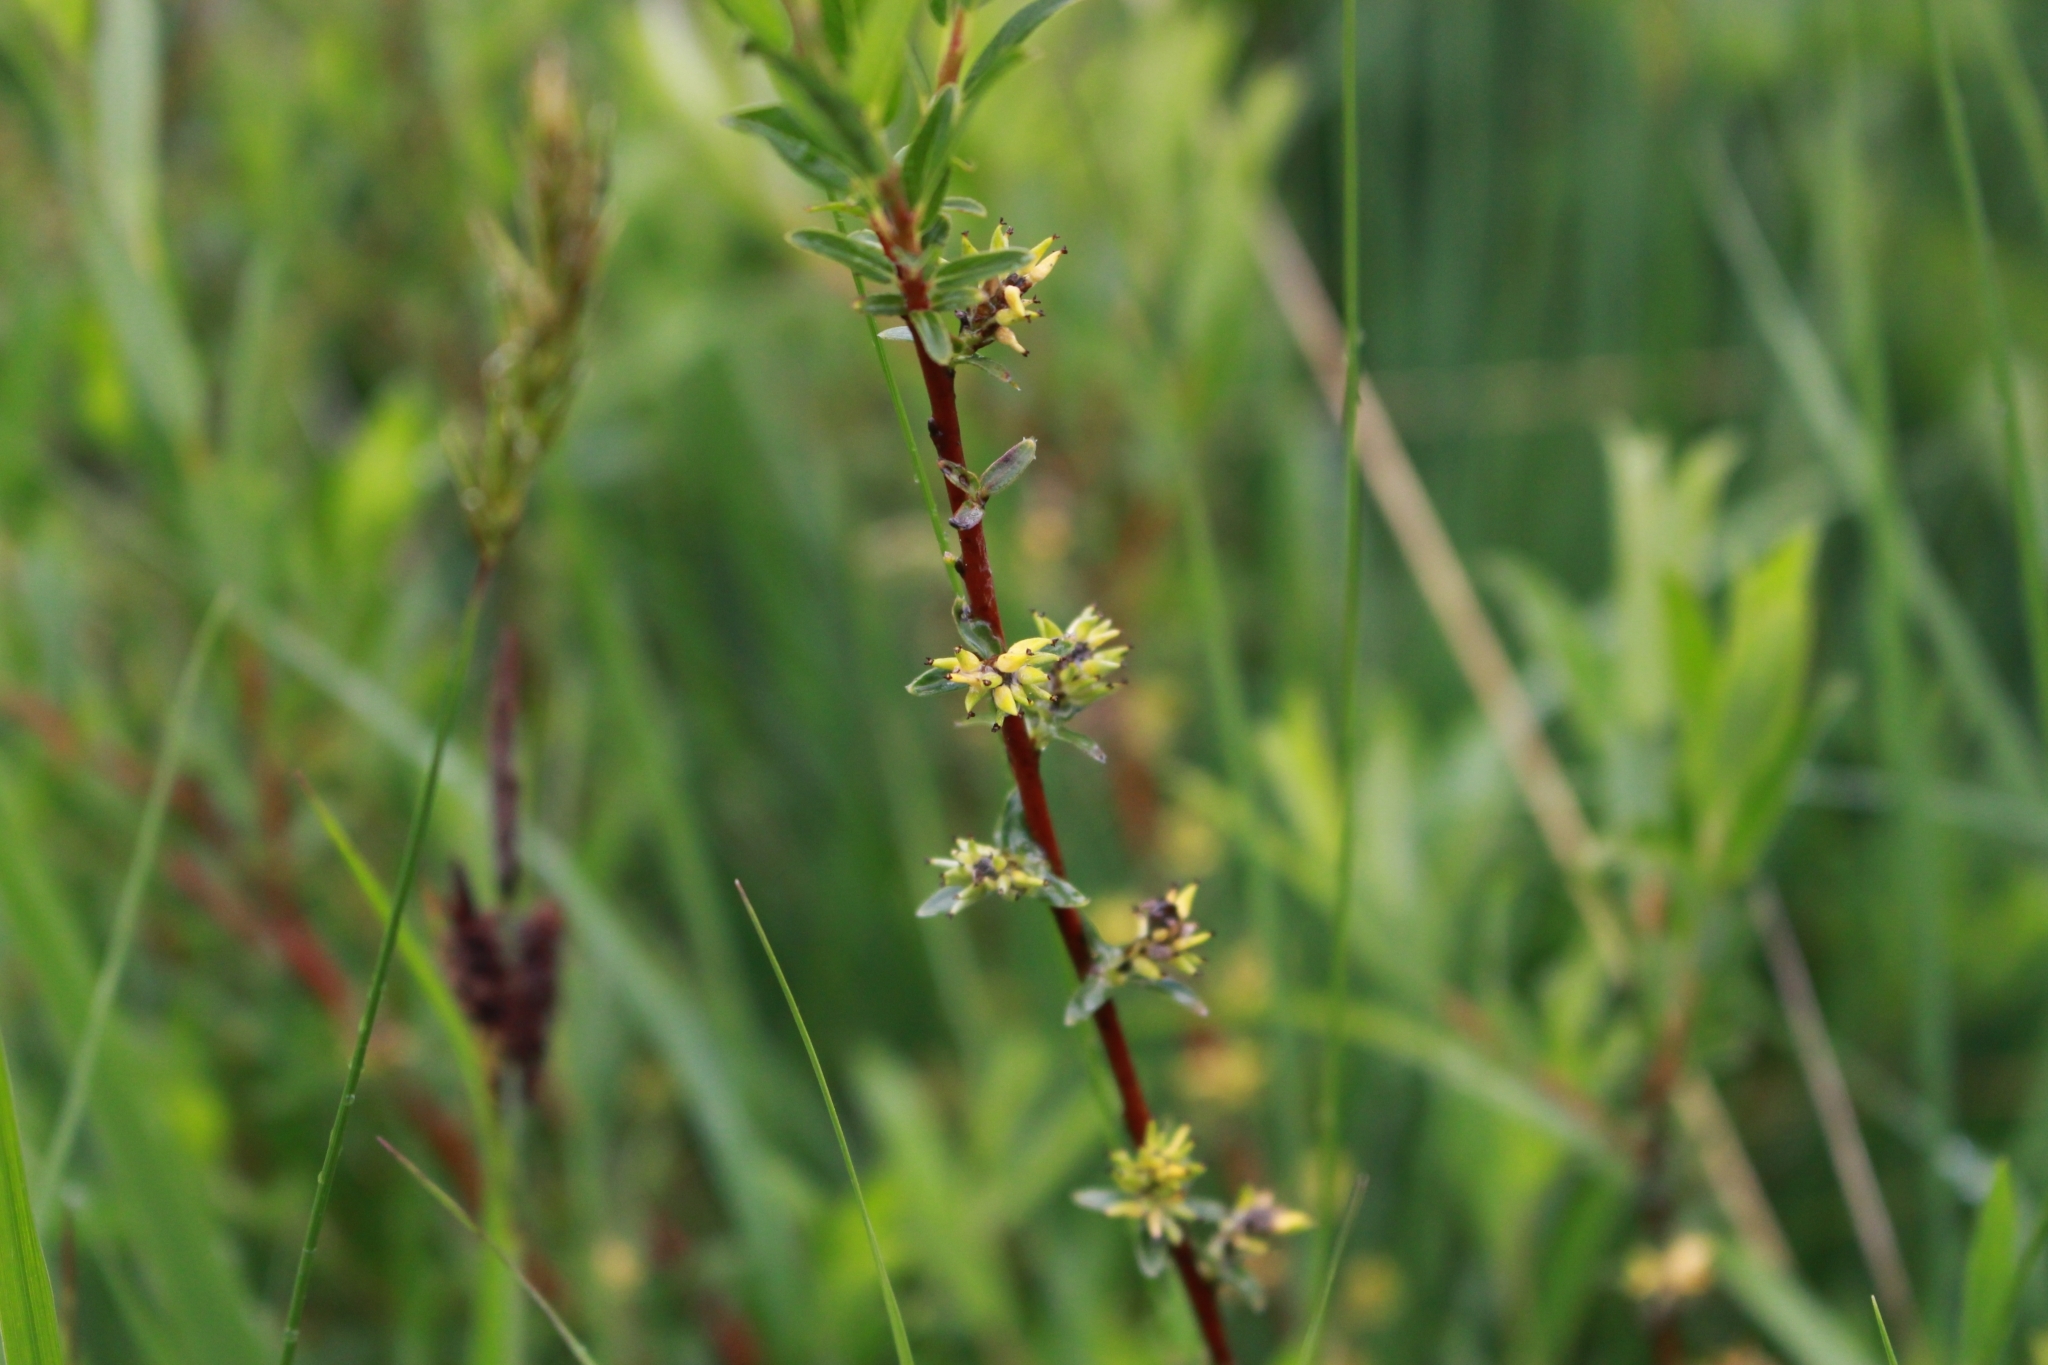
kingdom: Plantae
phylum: Tracheophyta
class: Magnoliopsida
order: Malpighiales
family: Salicaceae
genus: Salix
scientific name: Salix repens
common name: Creeping willow
